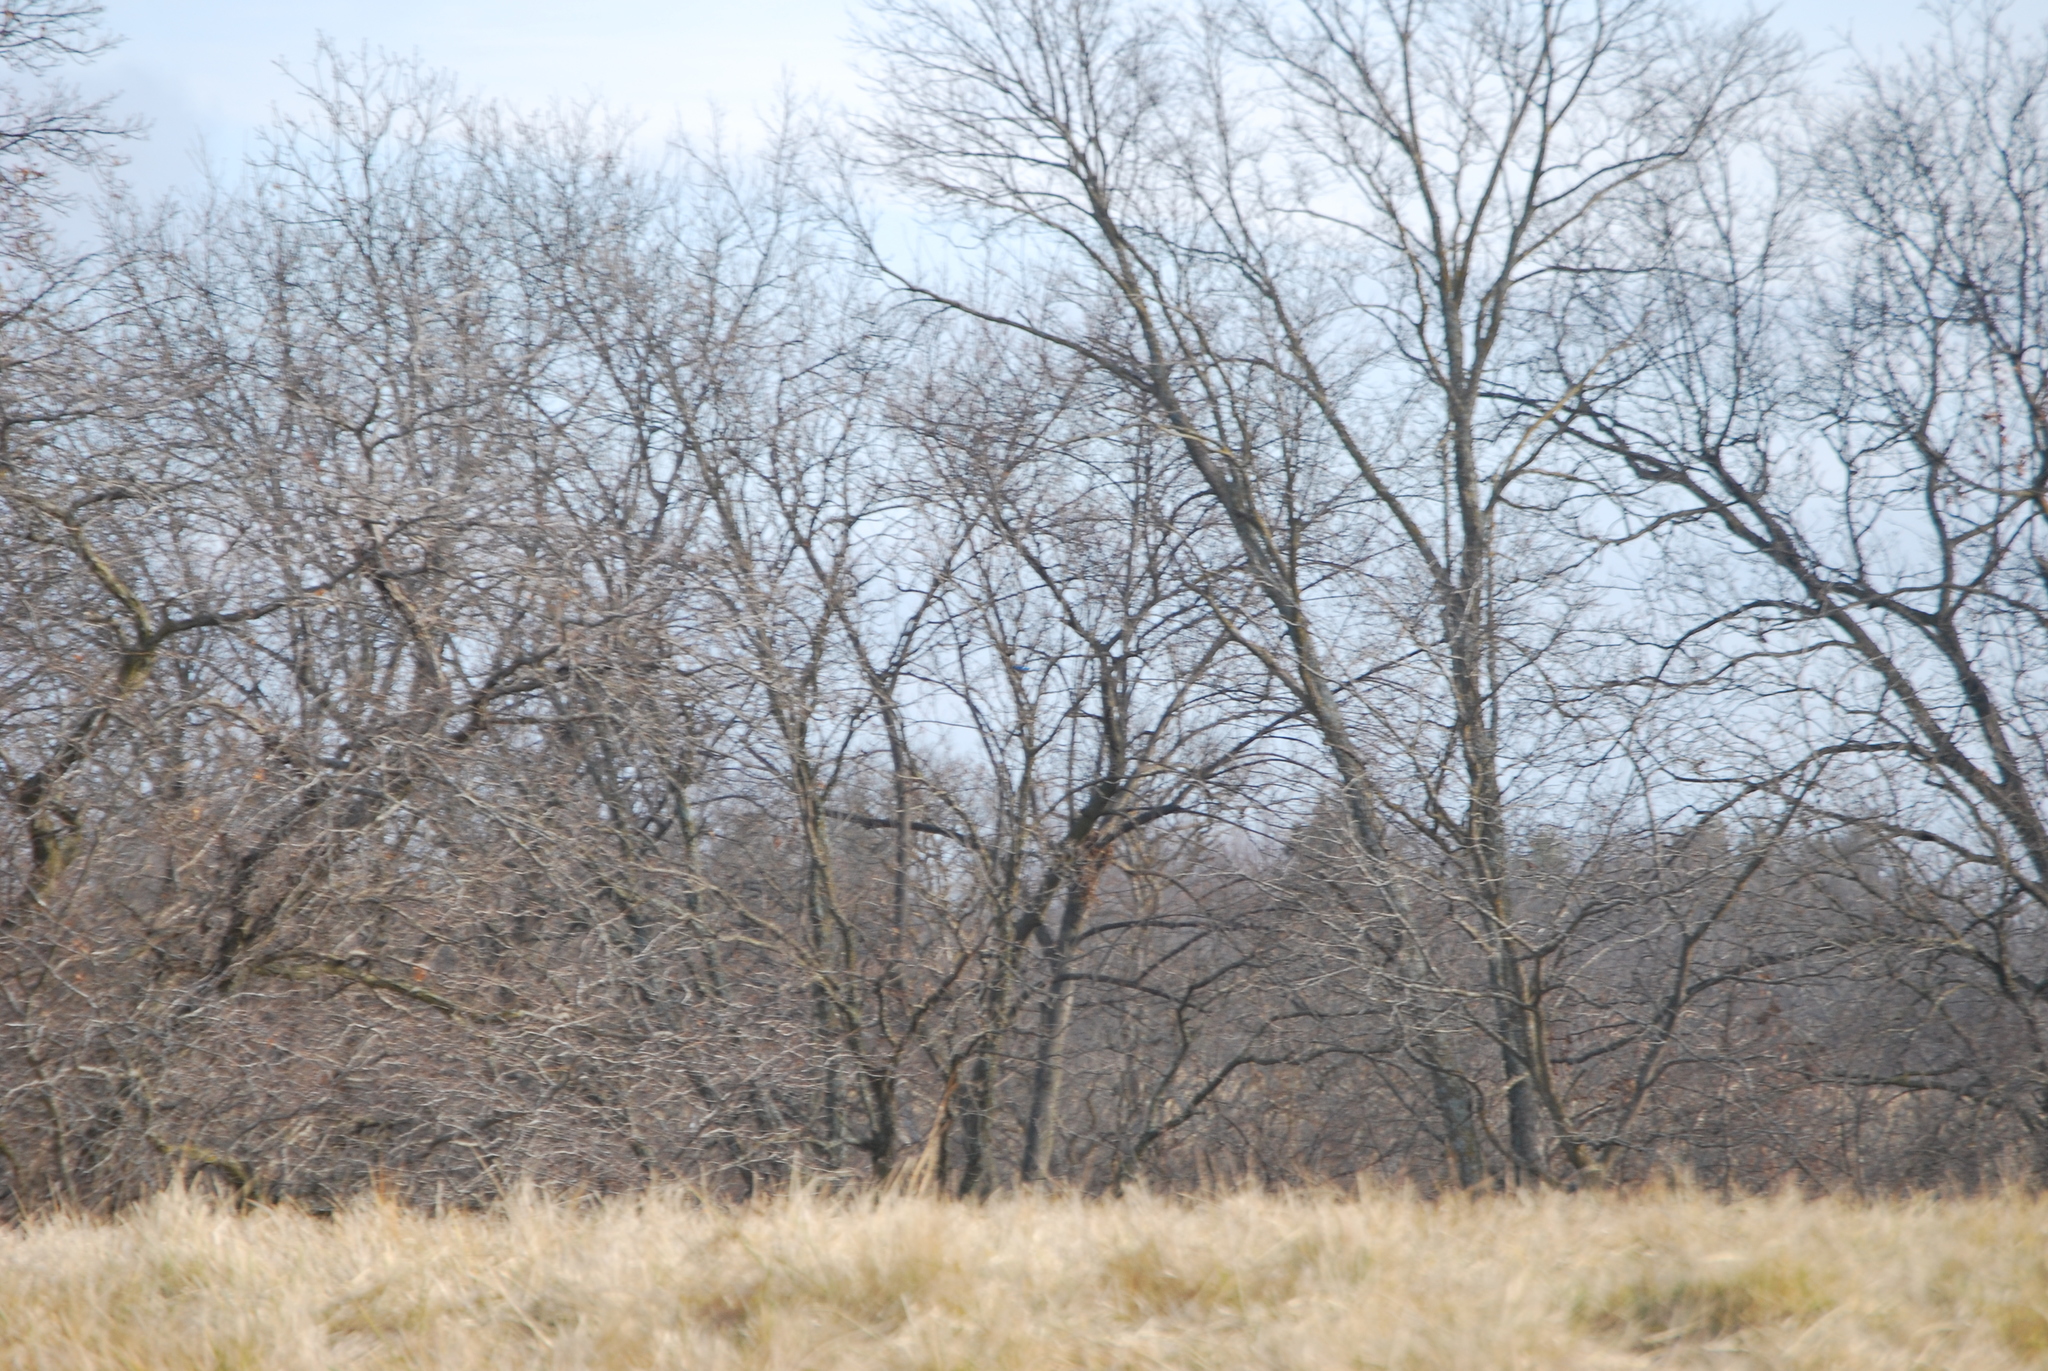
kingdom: Animalia
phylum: Chordata
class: Aves
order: Passeriformes
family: Corvidae
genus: Cyanocitta
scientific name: Cyanocitta cristata
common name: Blue jay
